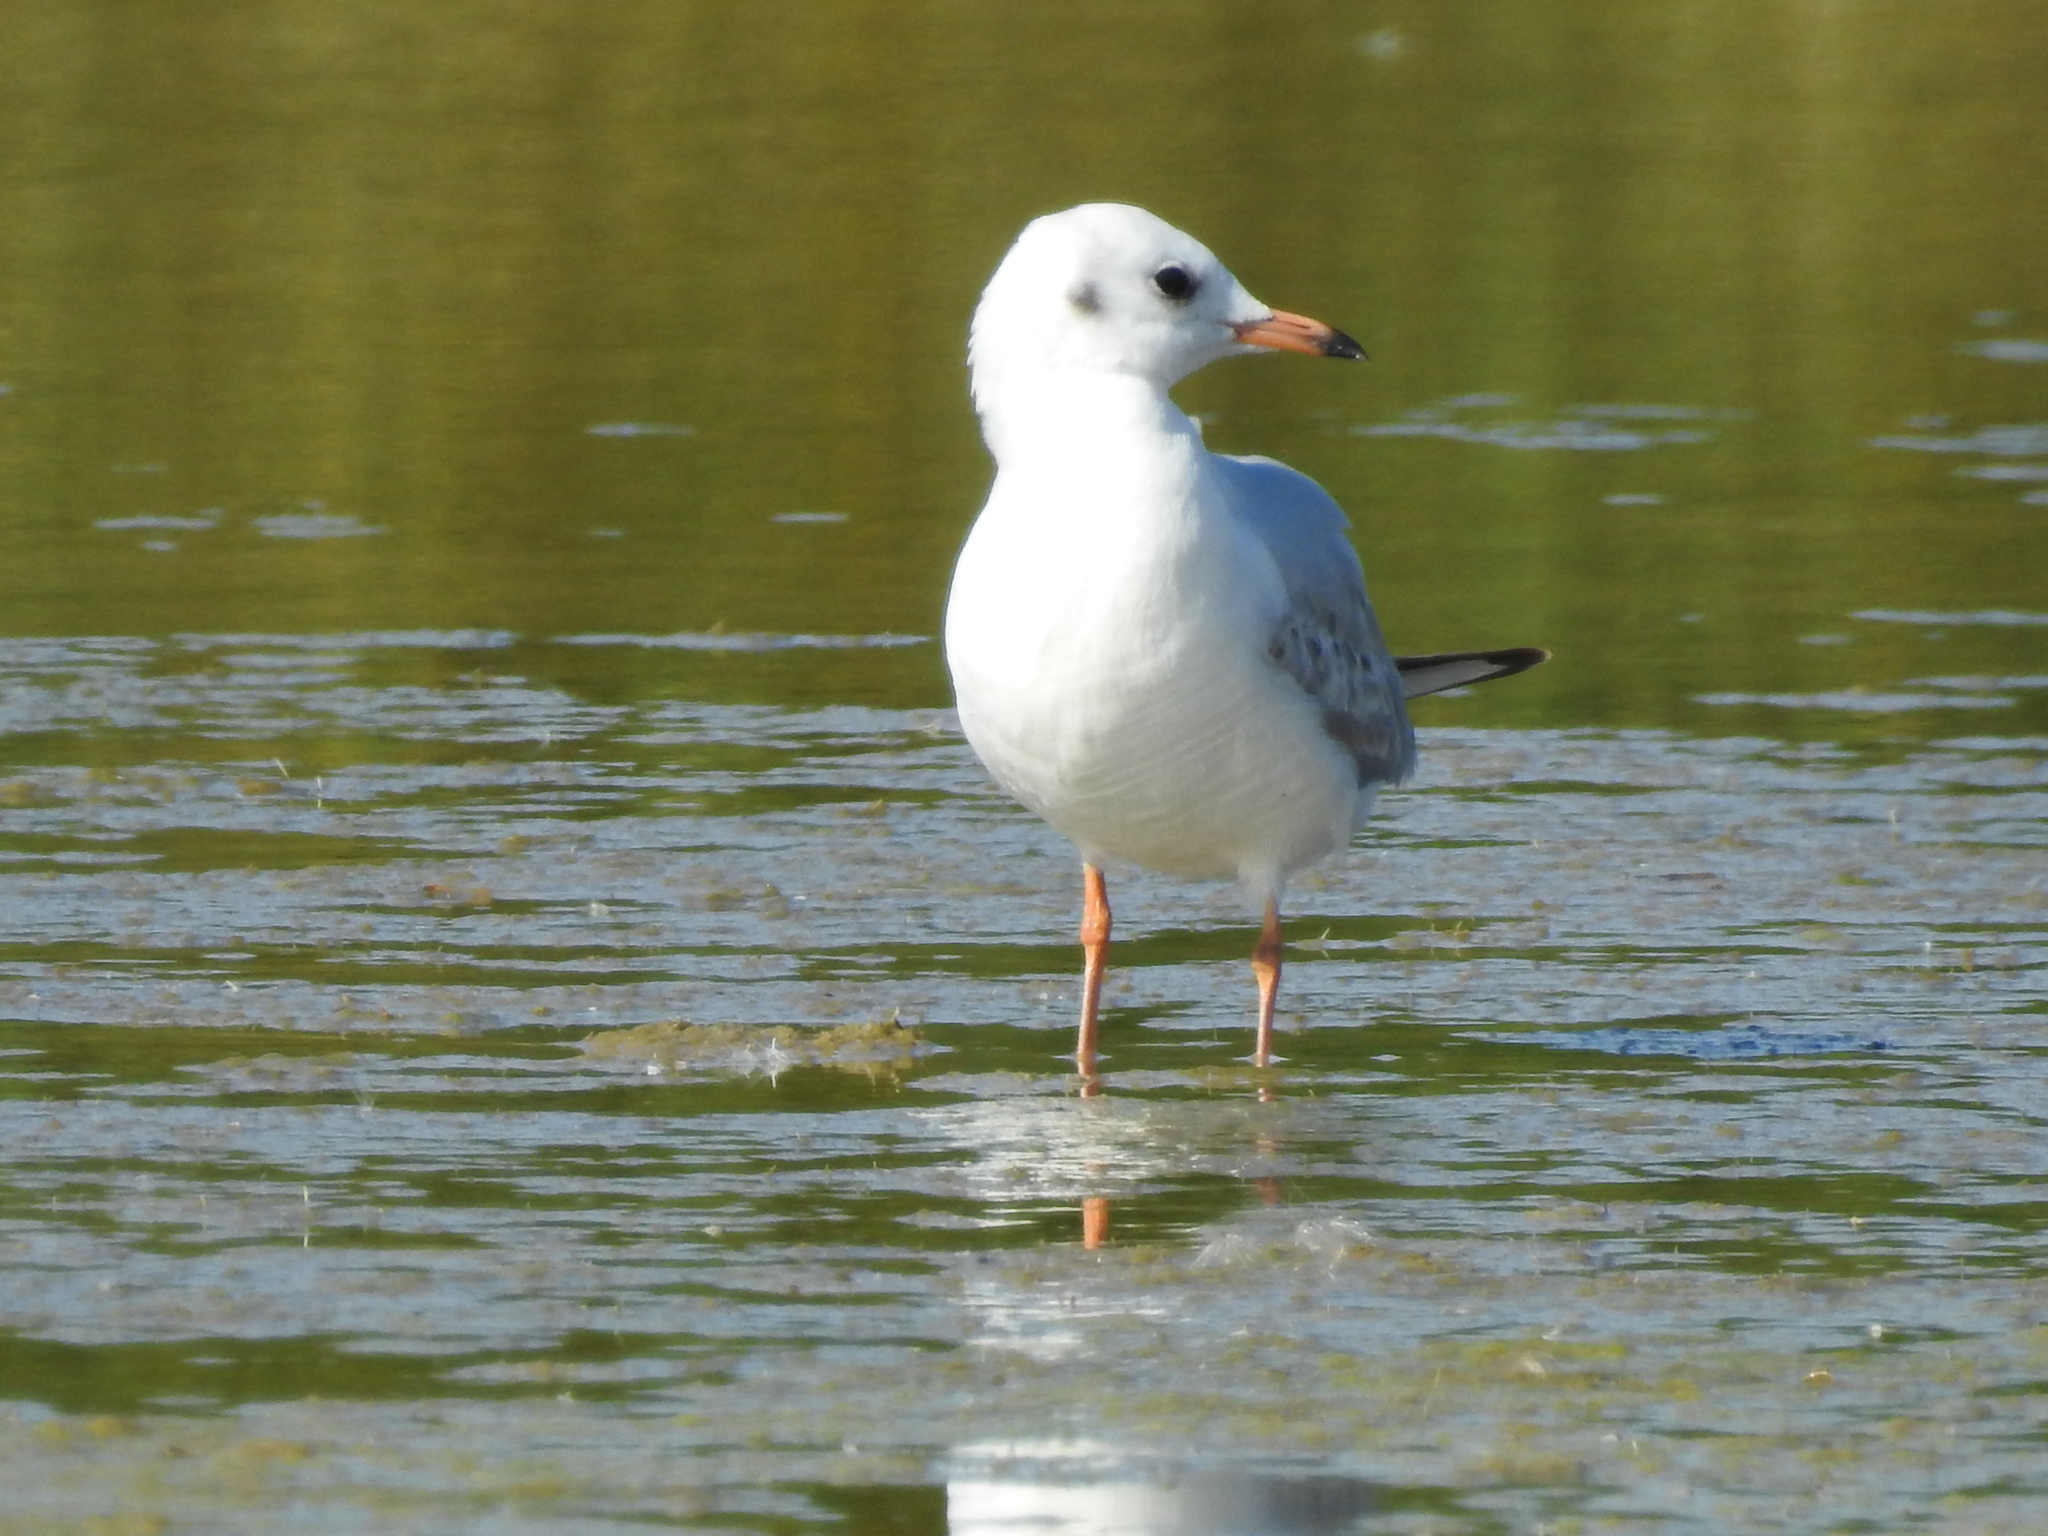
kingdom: Animalia
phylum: Chordata
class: Aves
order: Charadriiformes
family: Laridae
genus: Chroicocephalus
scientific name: Chroicocephalus ridibundus
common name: Black-headed gull
